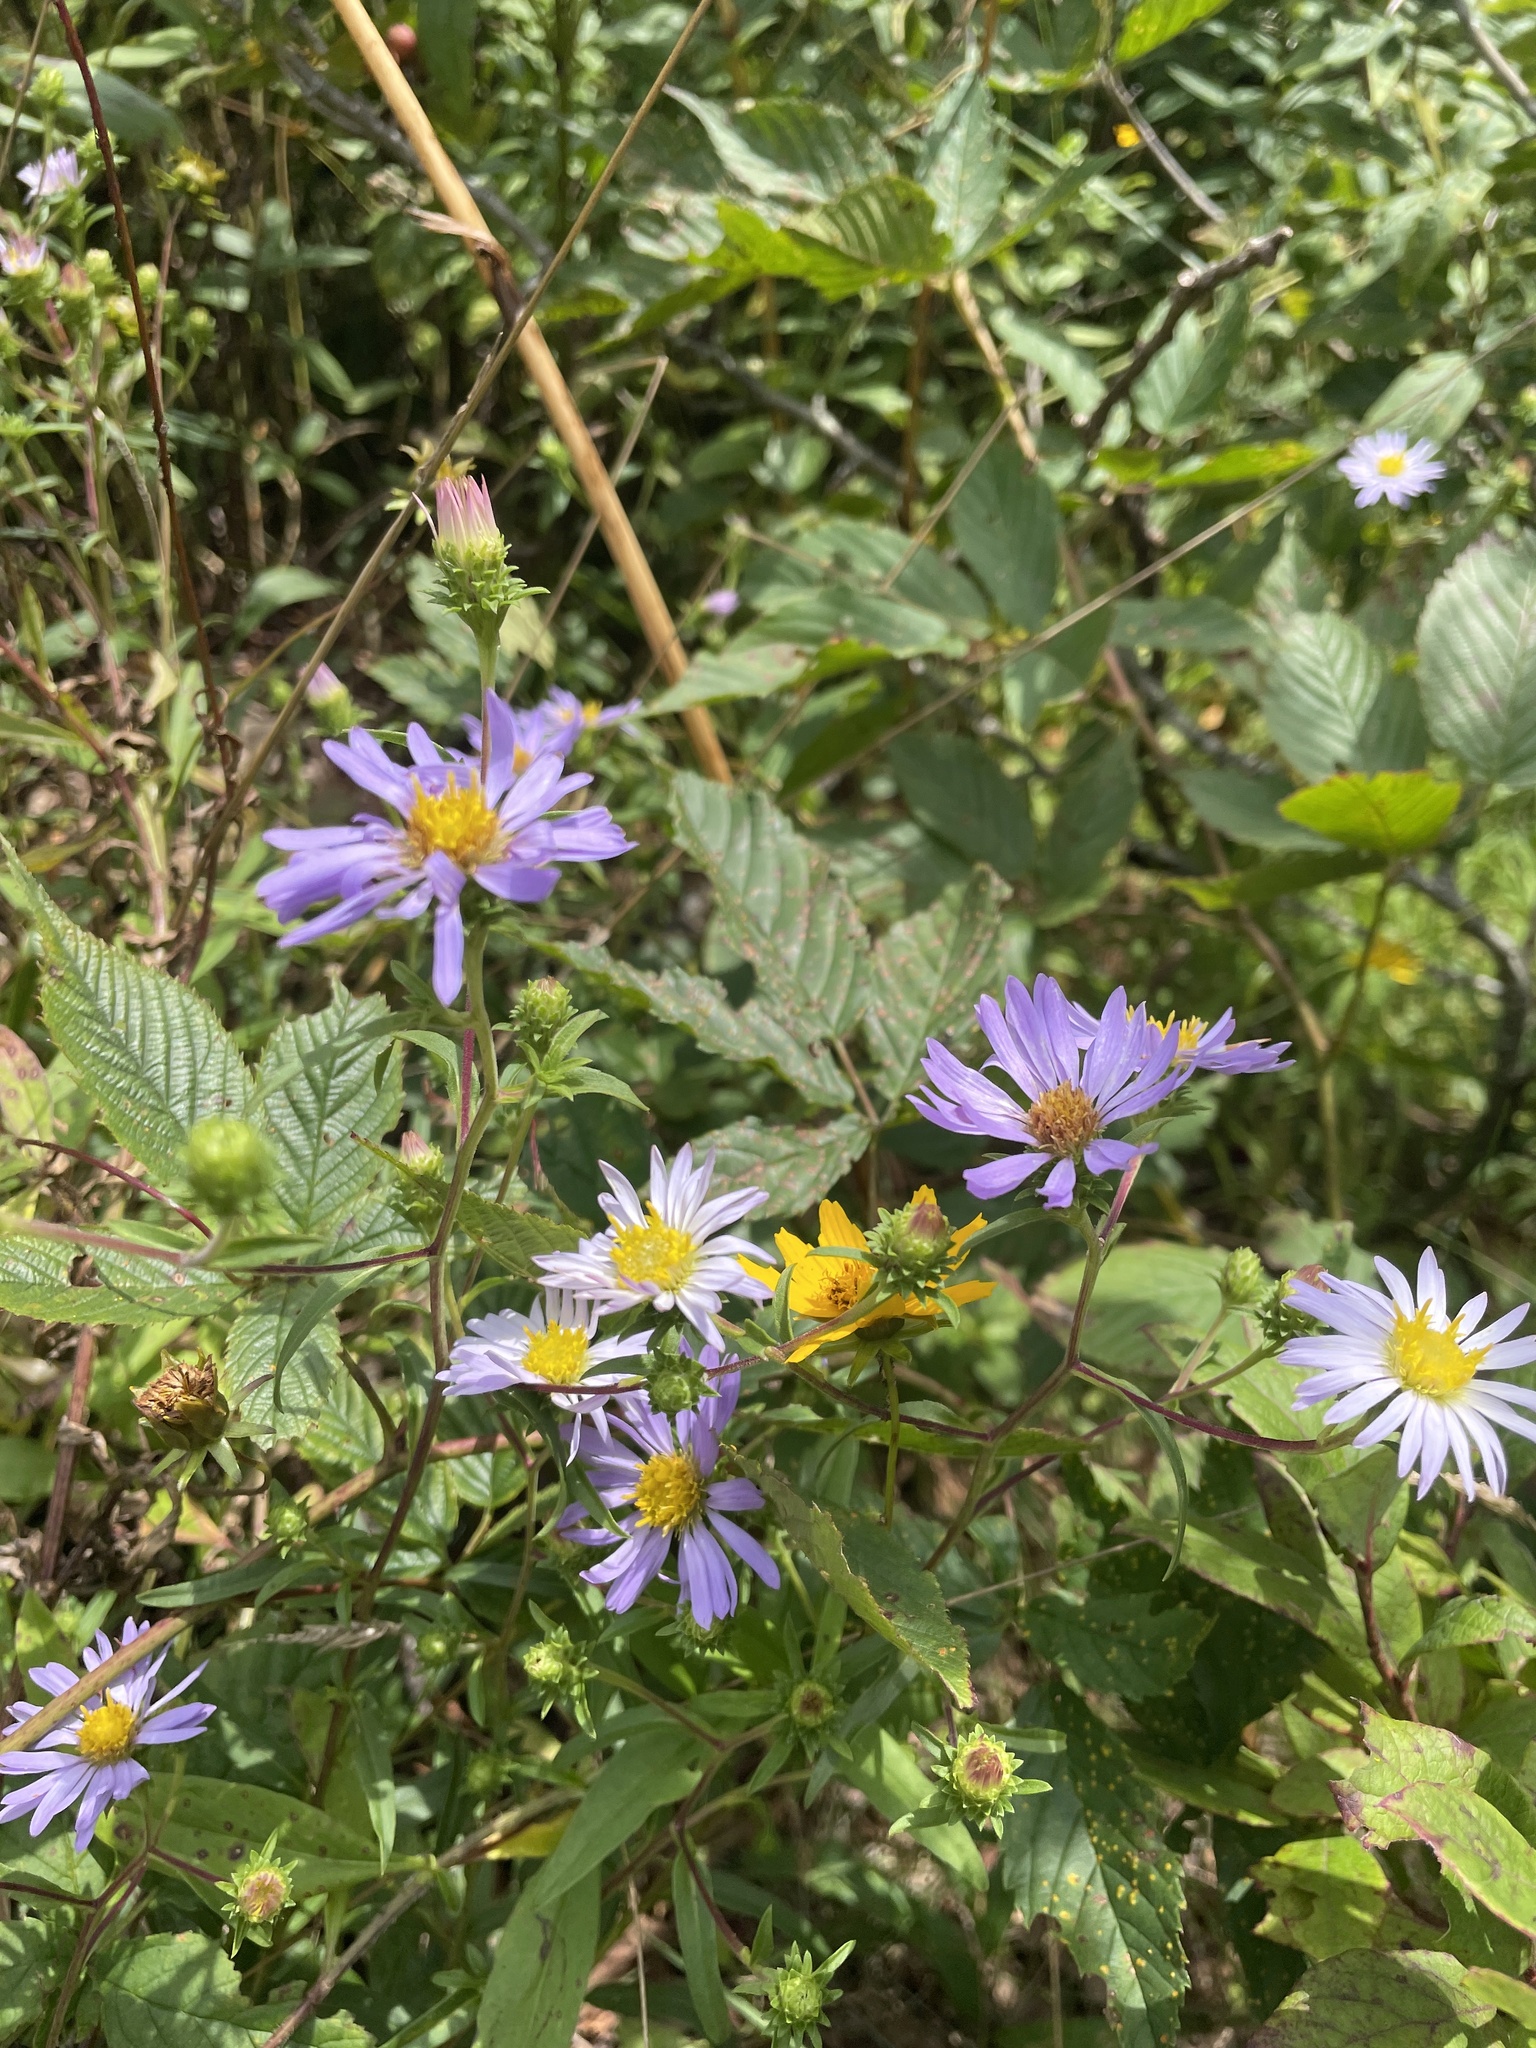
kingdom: Plantae
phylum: Tracheophyta
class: Magnoliopsida
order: Asterales
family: Asteraceae
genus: Eurybia
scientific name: Eurybia surculosa
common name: Creeping aster
